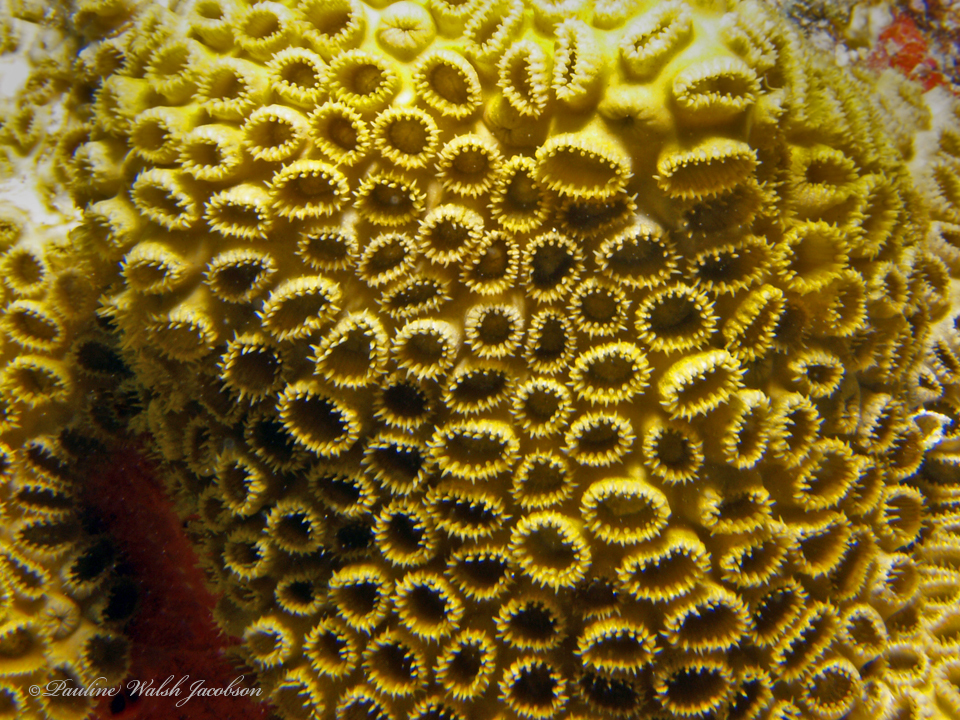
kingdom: Animalia
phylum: Cnidaria
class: Anthozoa
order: Zoantharia
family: Sphenopidae
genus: Palythoa
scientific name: Palythoa caribaeorum
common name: Encrusting colonial anemone
